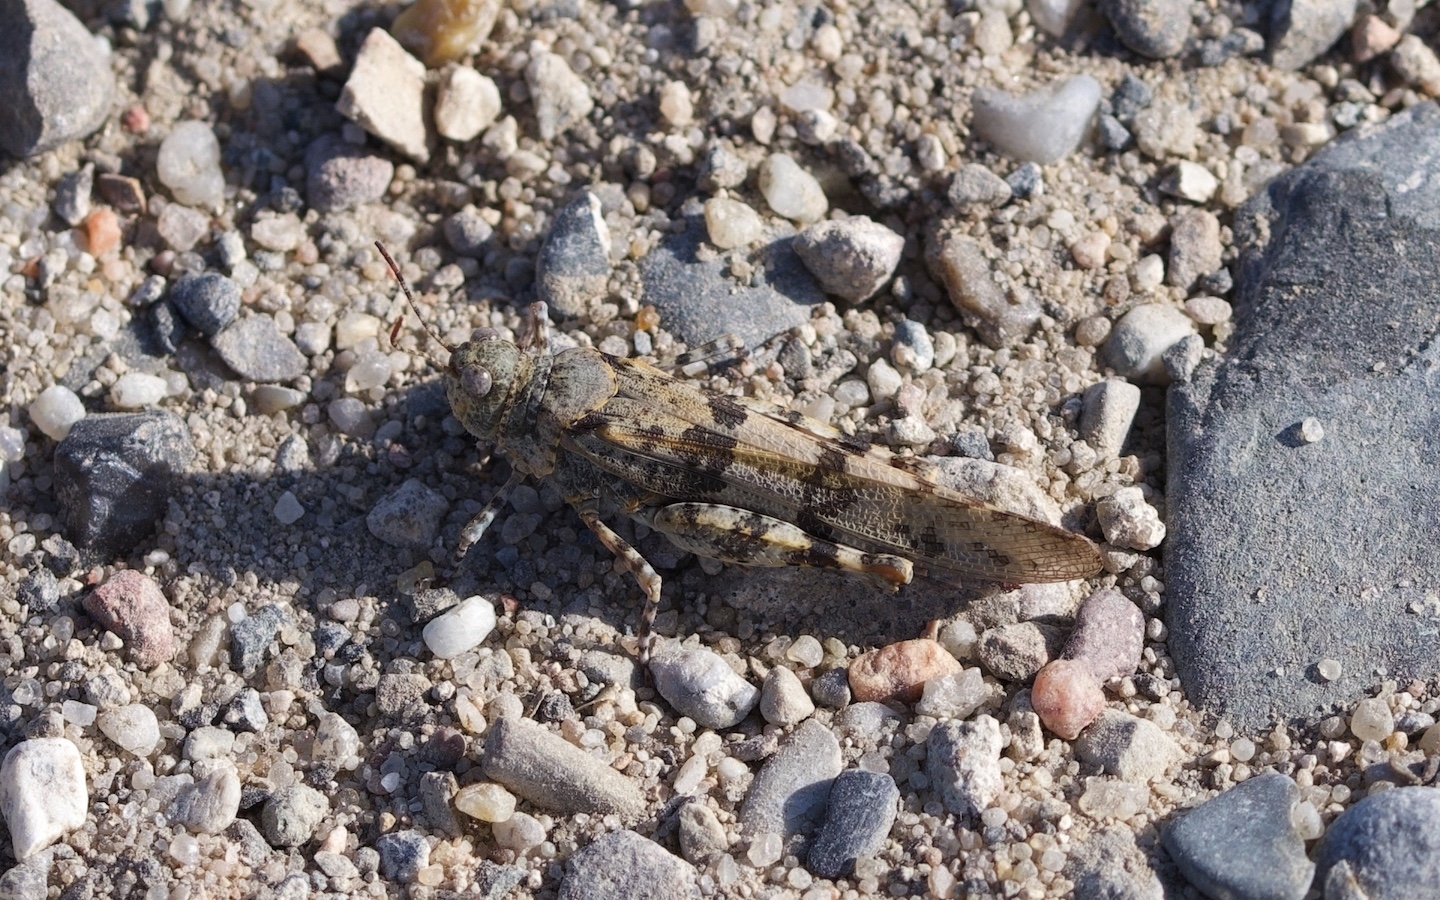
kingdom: Animalia
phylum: Arthropoda
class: Insecta
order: Orthoptera
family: Acrididae
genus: Sphingonotus
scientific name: Sphingonotus caerulans
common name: Blue-winged locust
